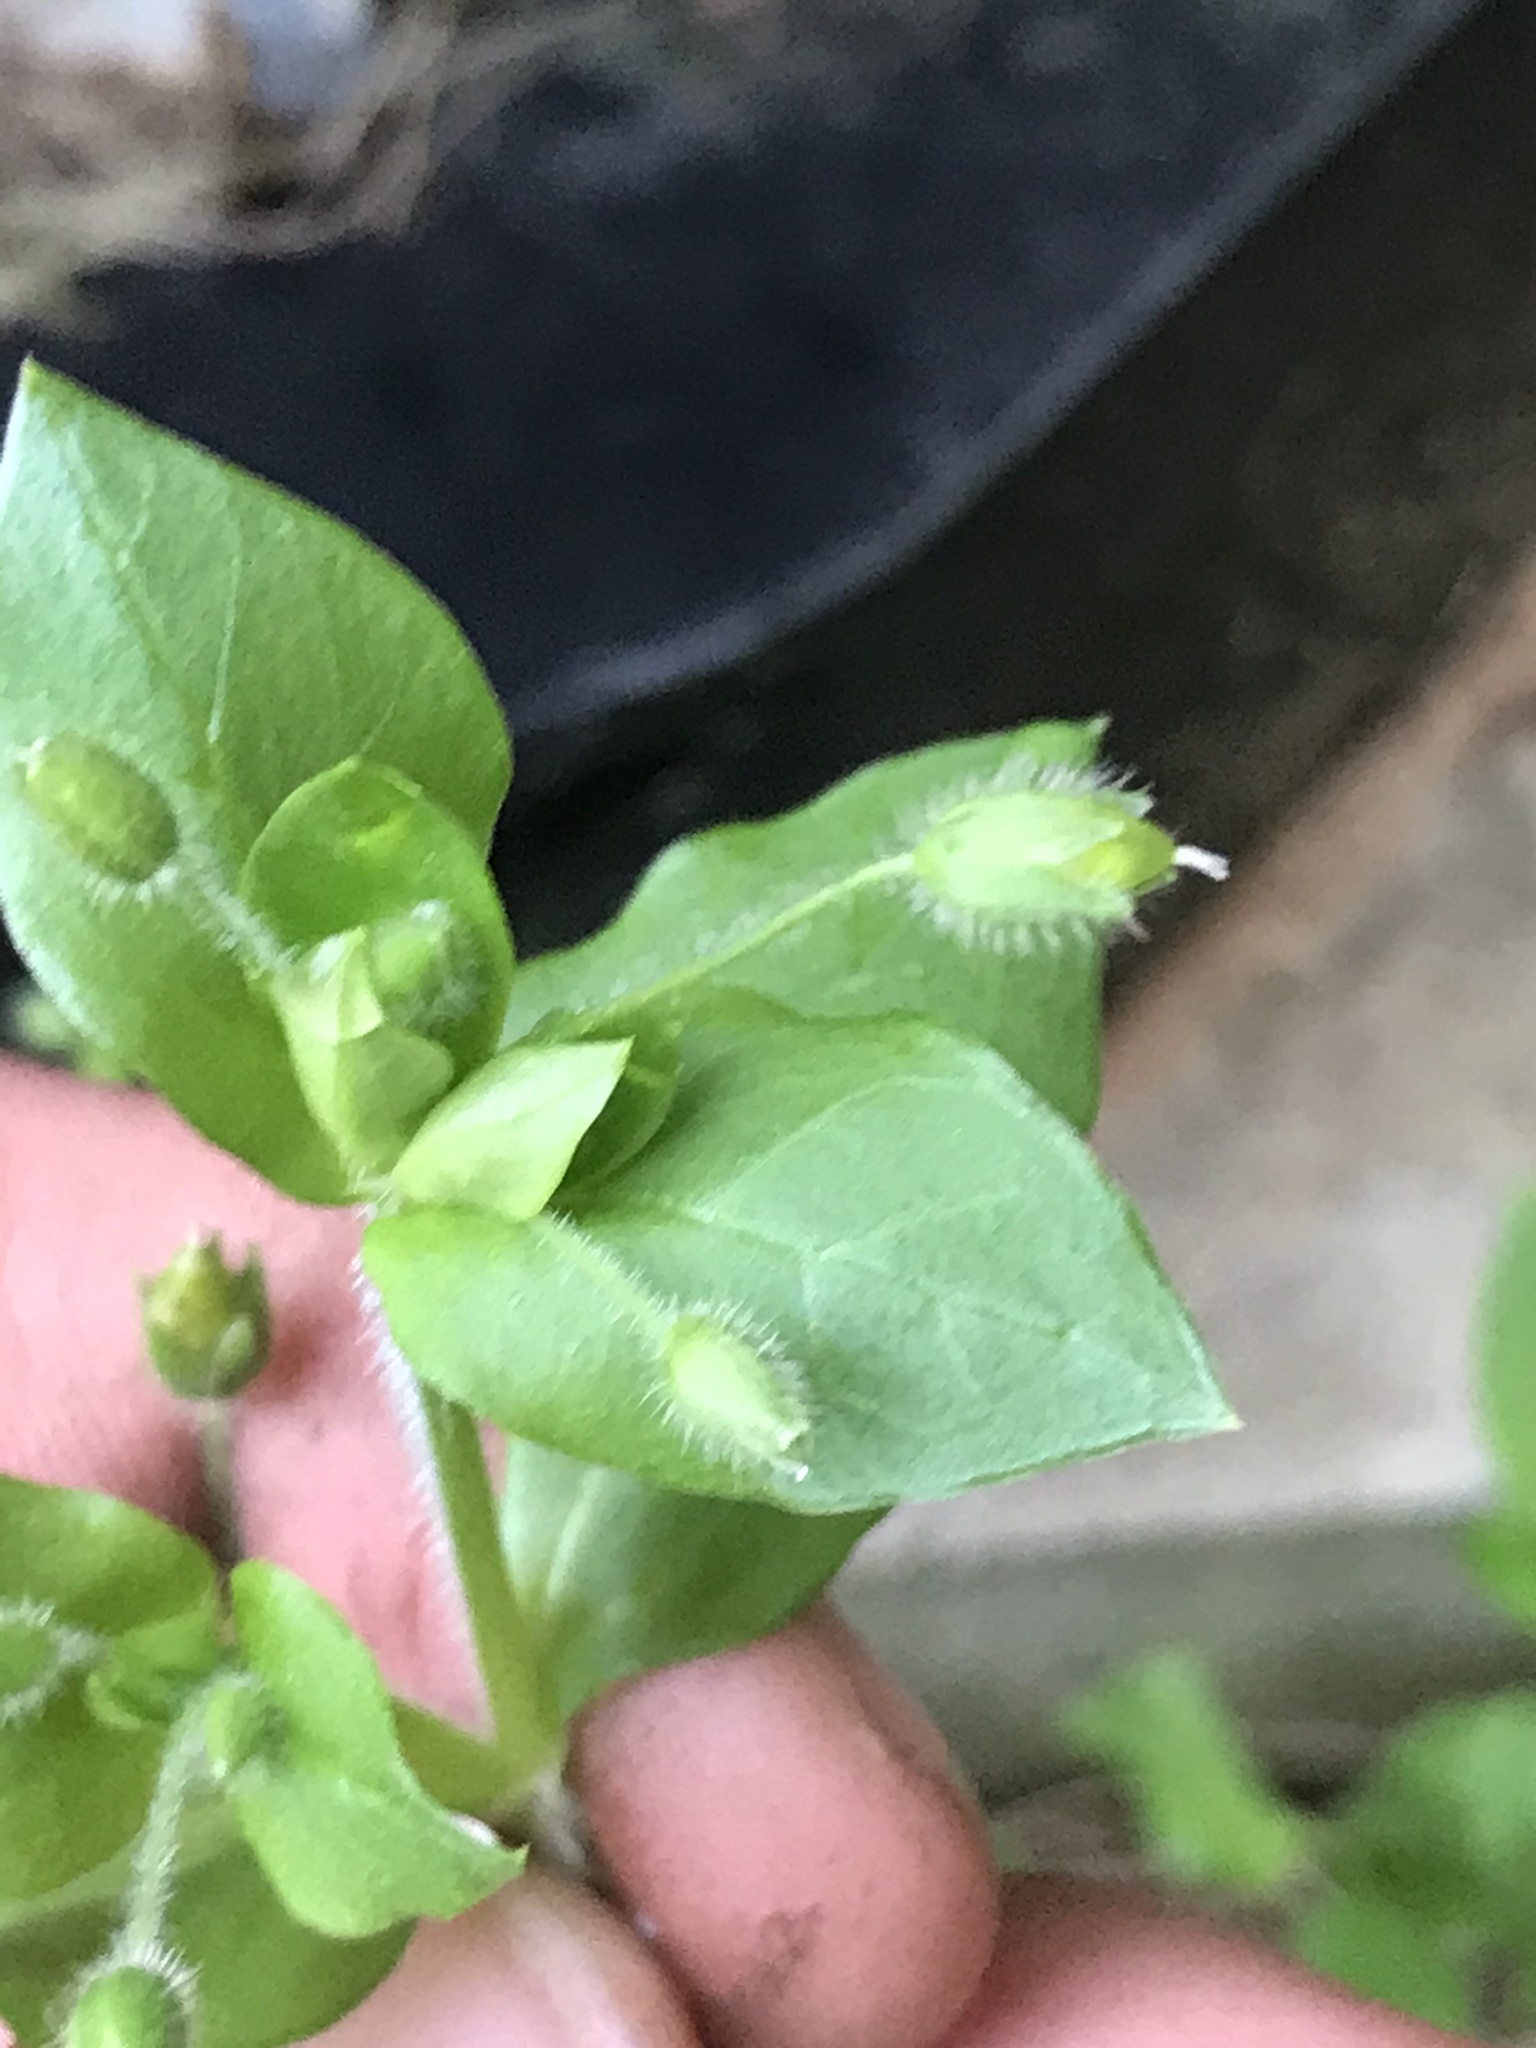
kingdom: Plantae
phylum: Tracheophyta
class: Magnoliopsida
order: Caryophyllales
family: Caryophyllaceae
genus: Stellaria
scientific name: Stellaria media
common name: Common chickweed
